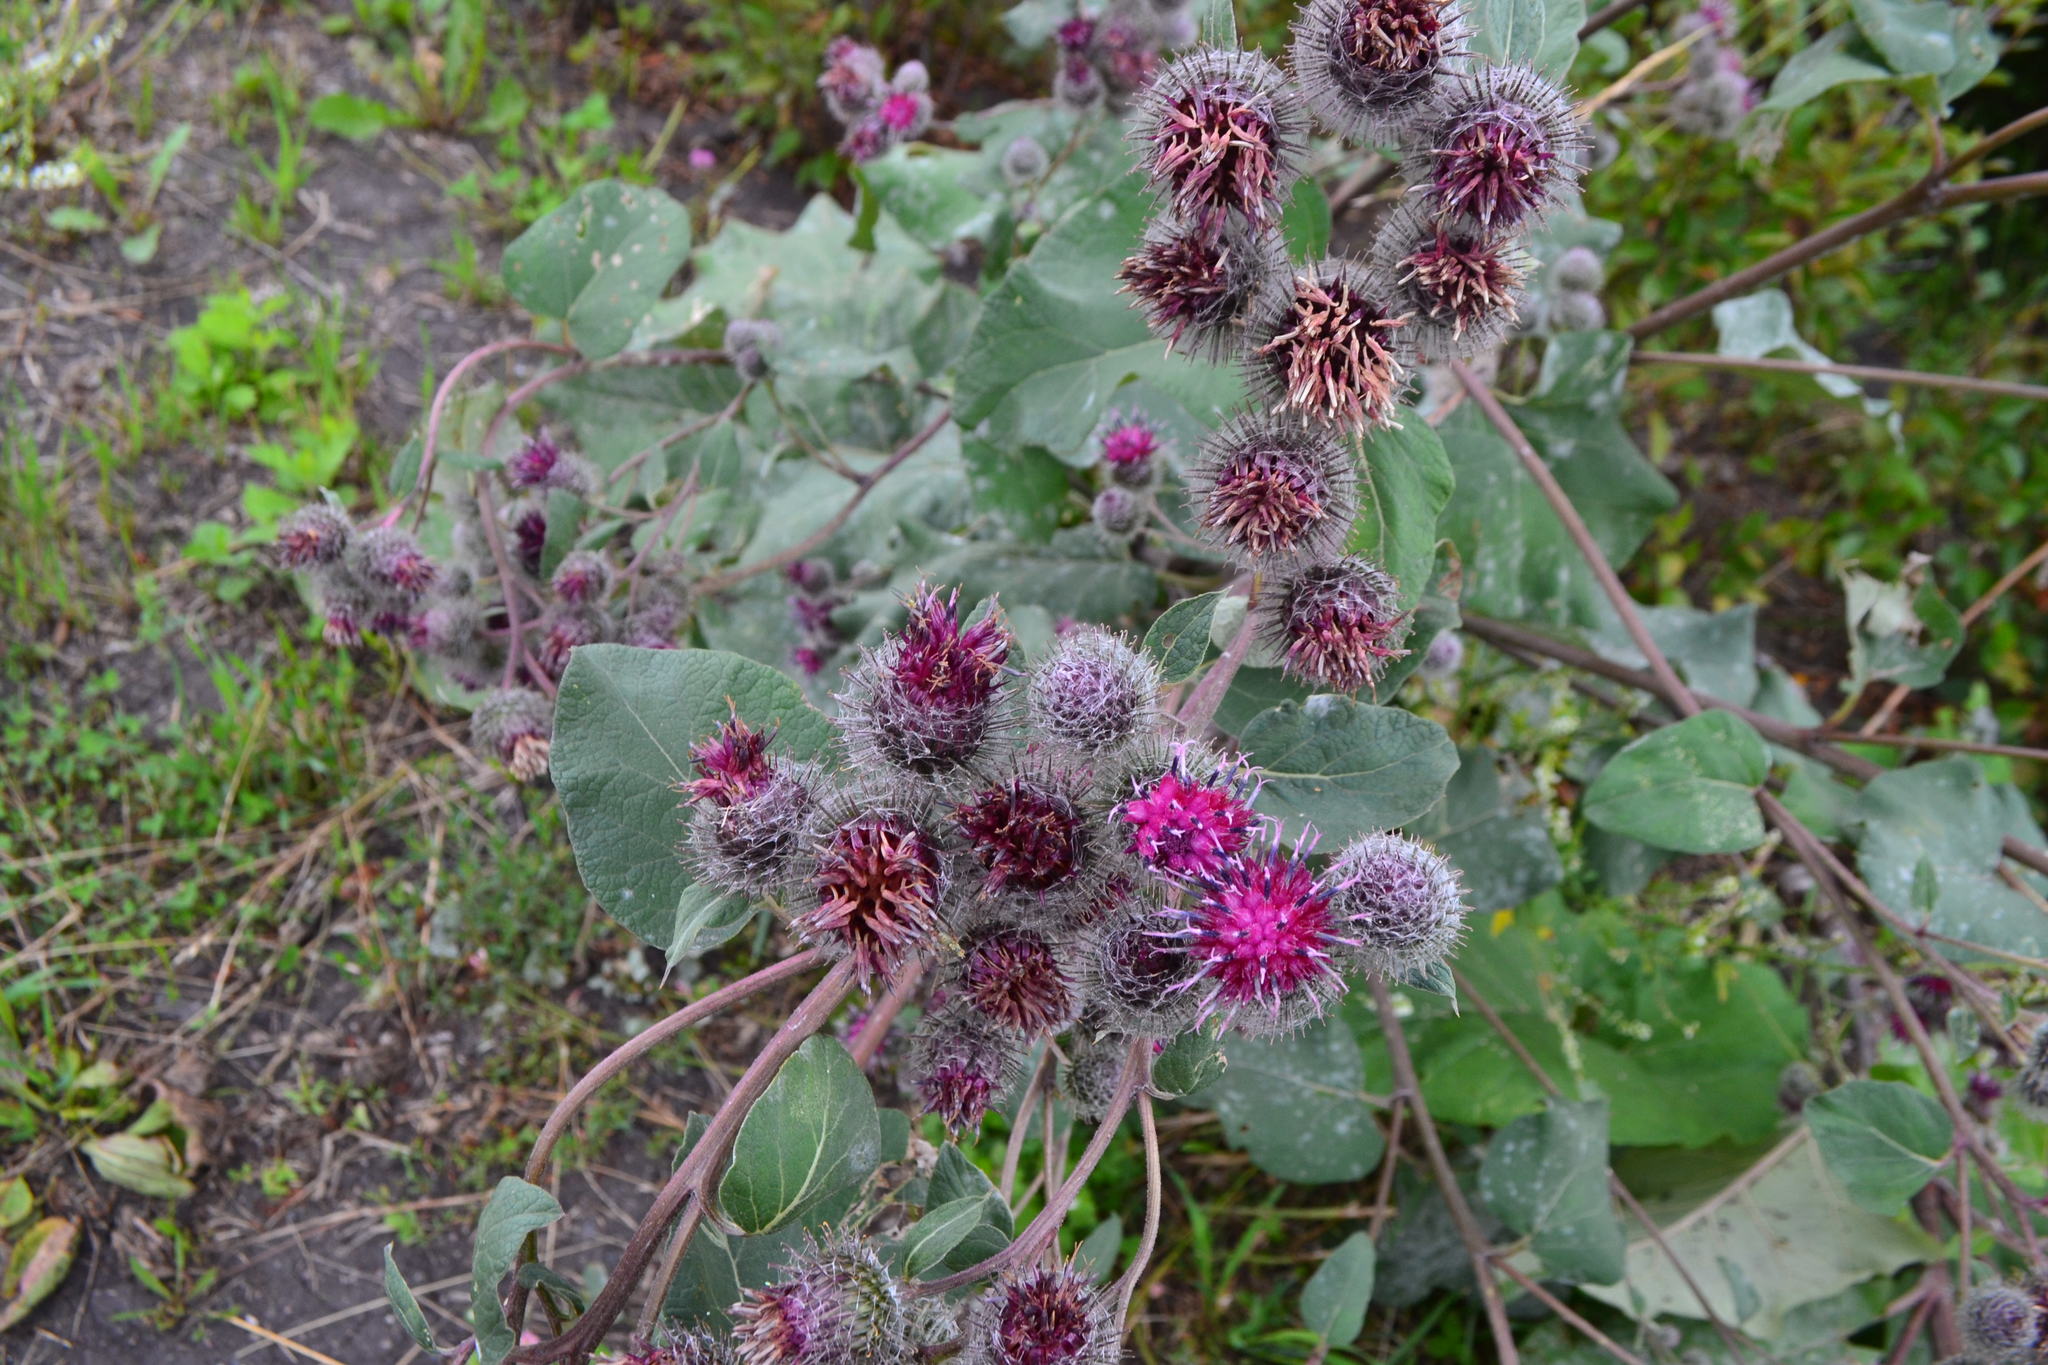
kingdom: Plantae
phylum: Tracheophyta
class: Magnoliopsida
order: Asterales
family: Asteraceae
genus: Arctium
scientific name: Arctium tomentosum
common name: Woolly burdock
